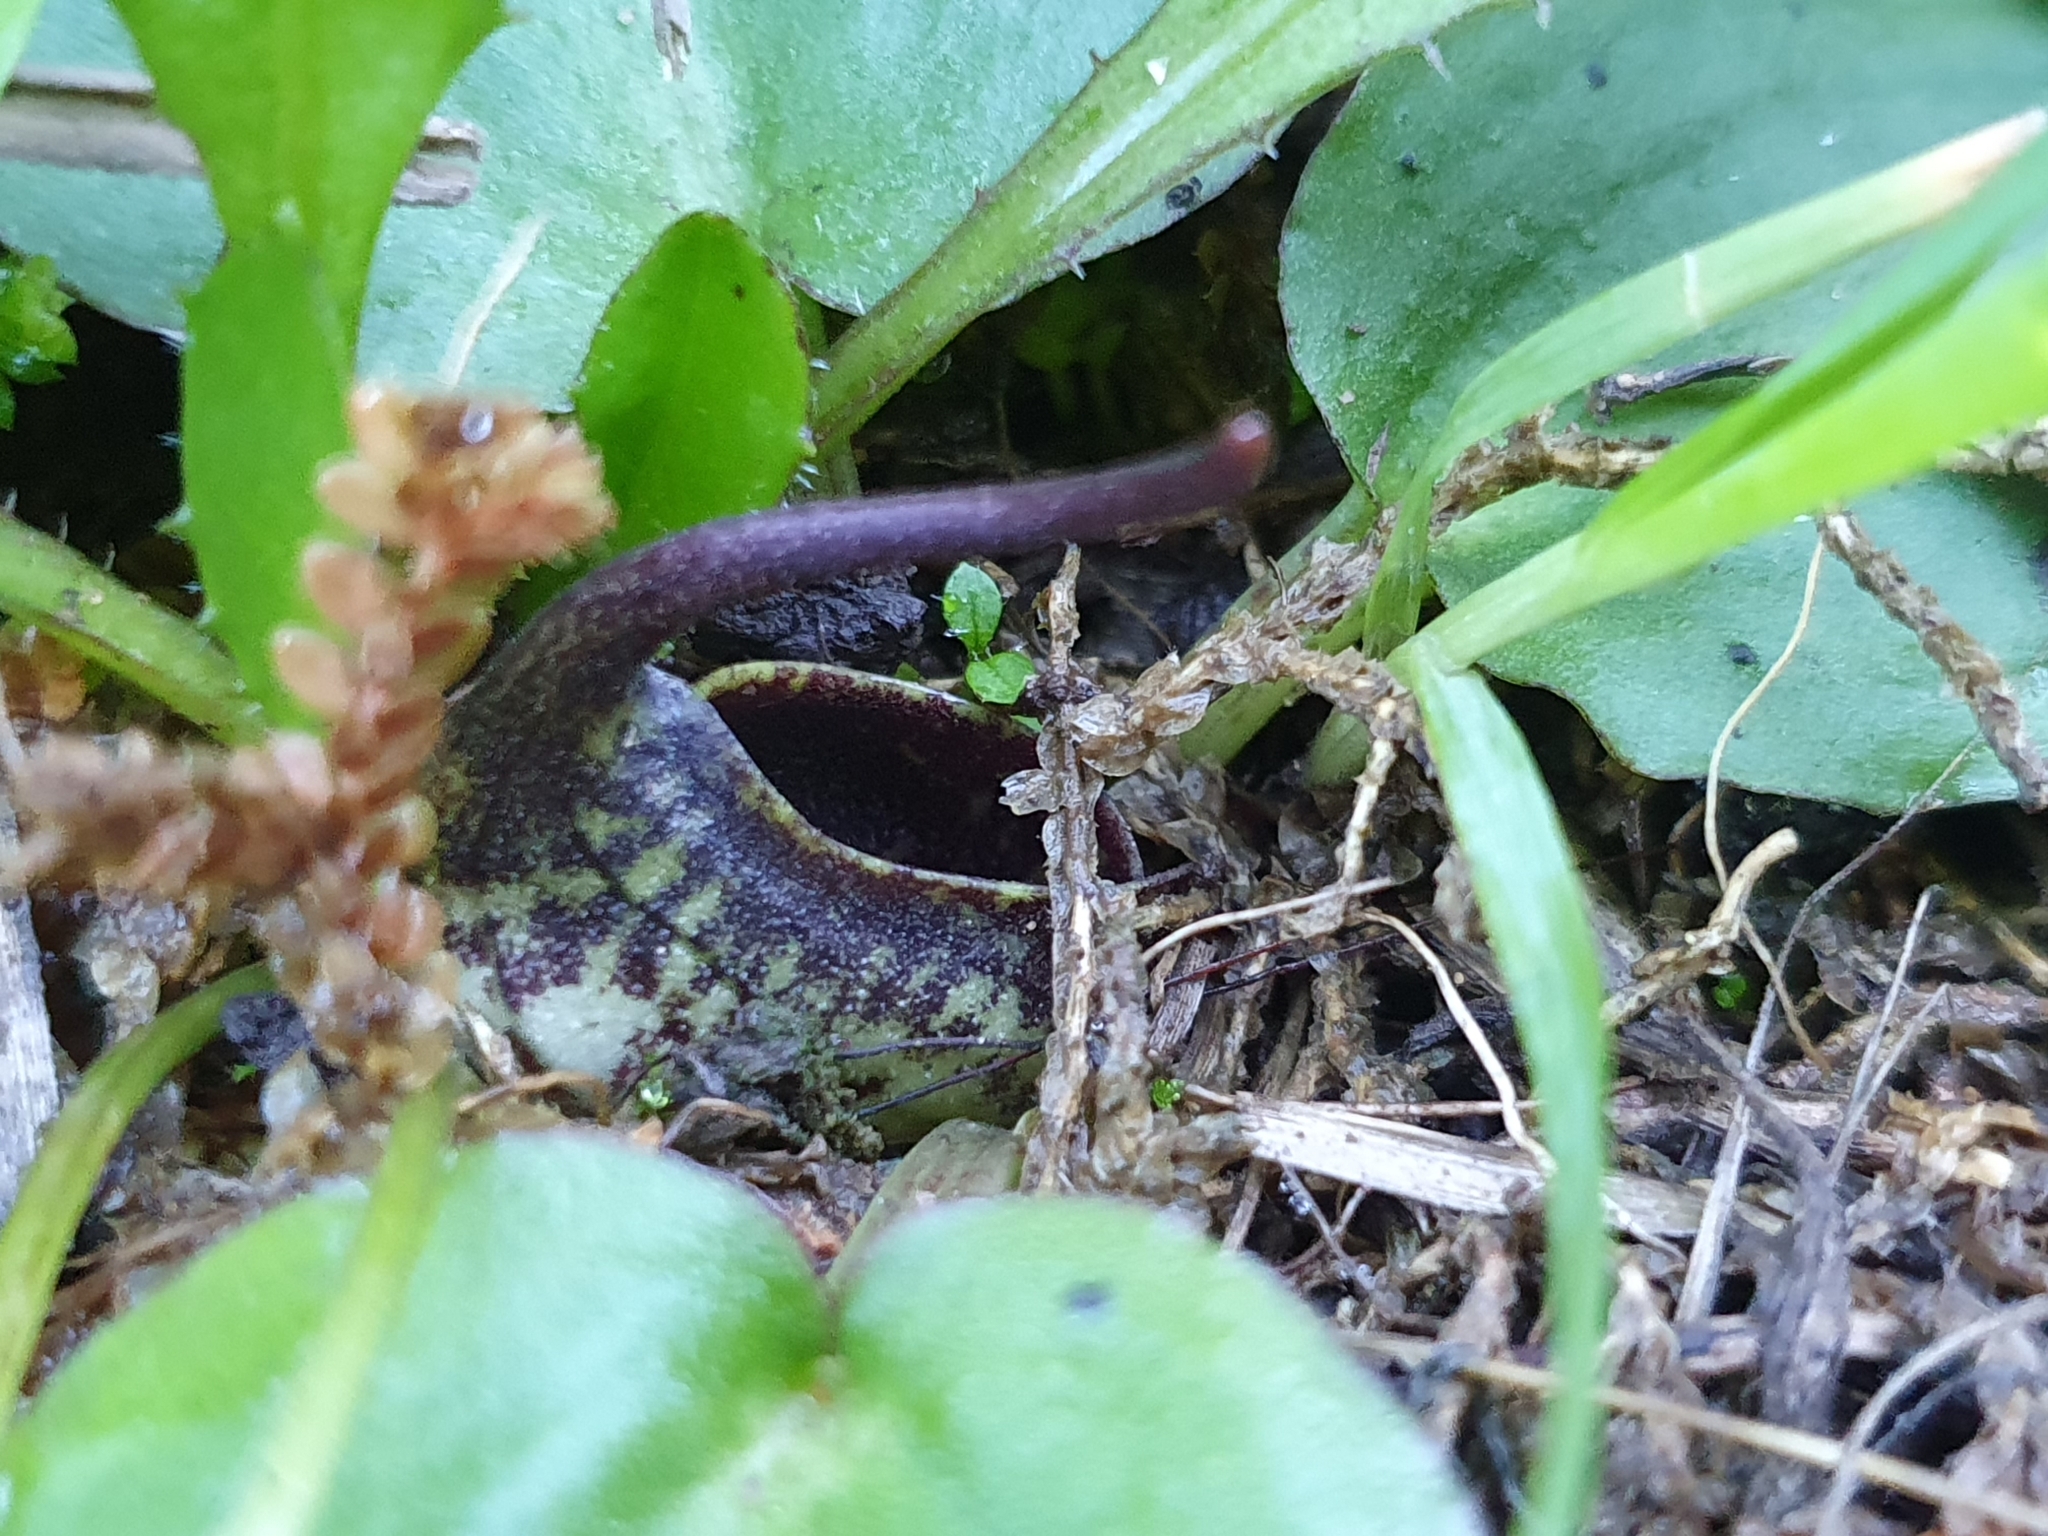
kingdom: Plantae
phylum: Tracheophyta
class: Liliopsida
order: Alismatales
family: Araceae
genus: Ambrosina
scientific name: Ambrosina bassii
